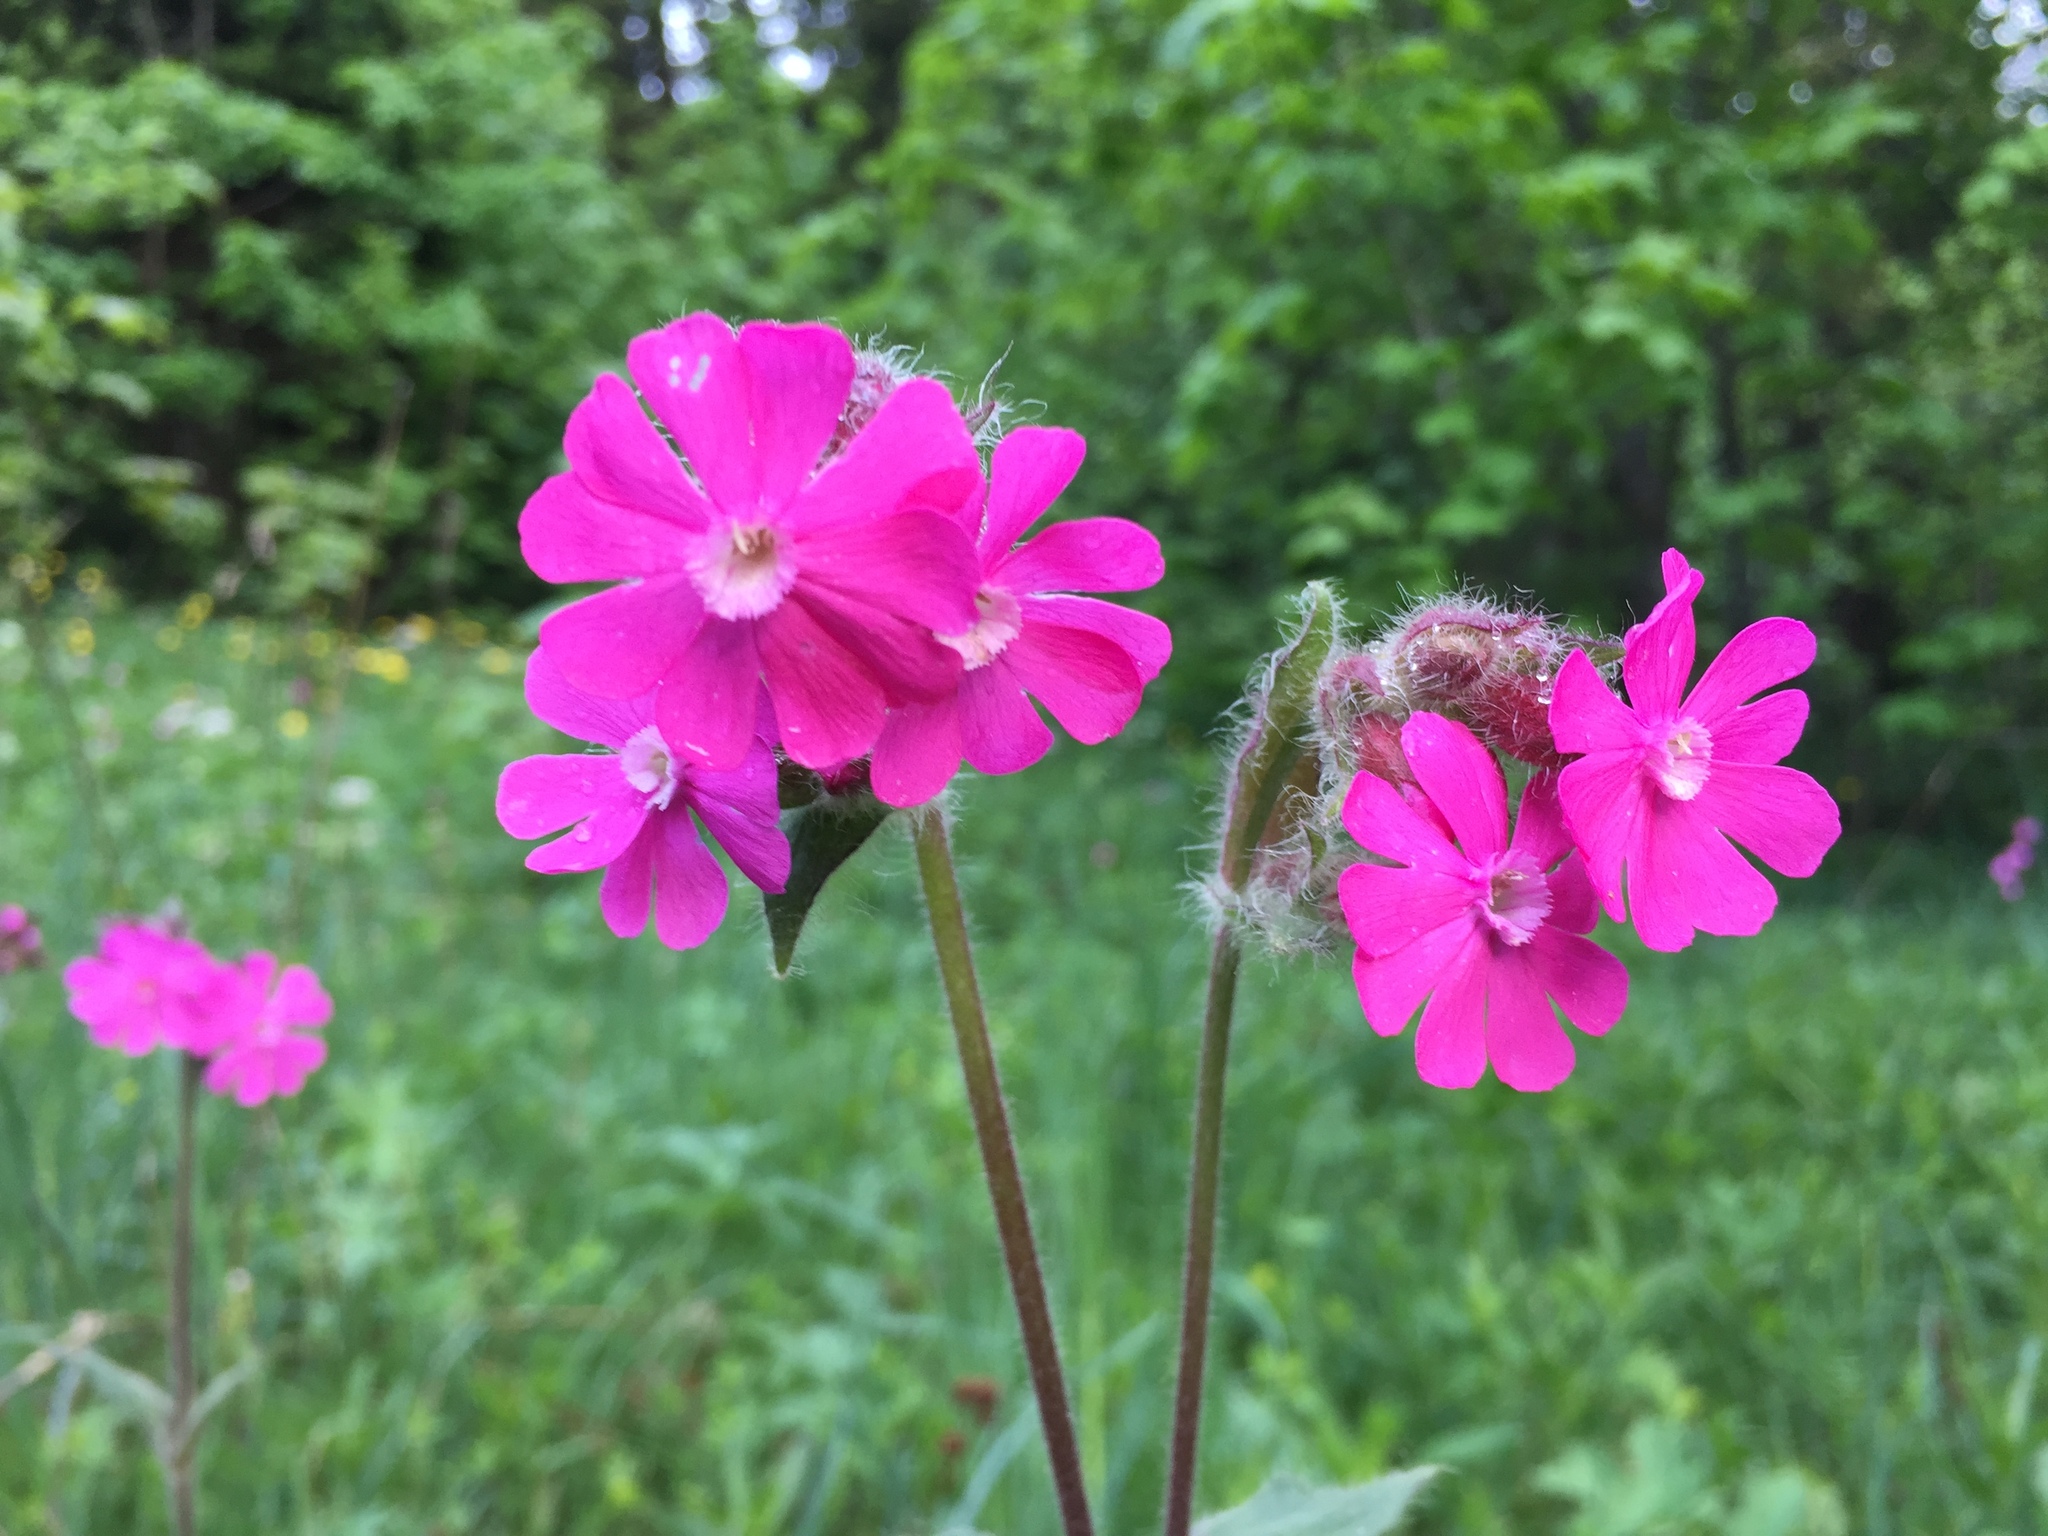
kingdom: Plantae
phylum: Tracheophyta
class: Magnoliopsida
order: Caryophyllales
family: Caryophyllaceae
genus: Silene
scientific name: Silene dioica
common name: Red campion
